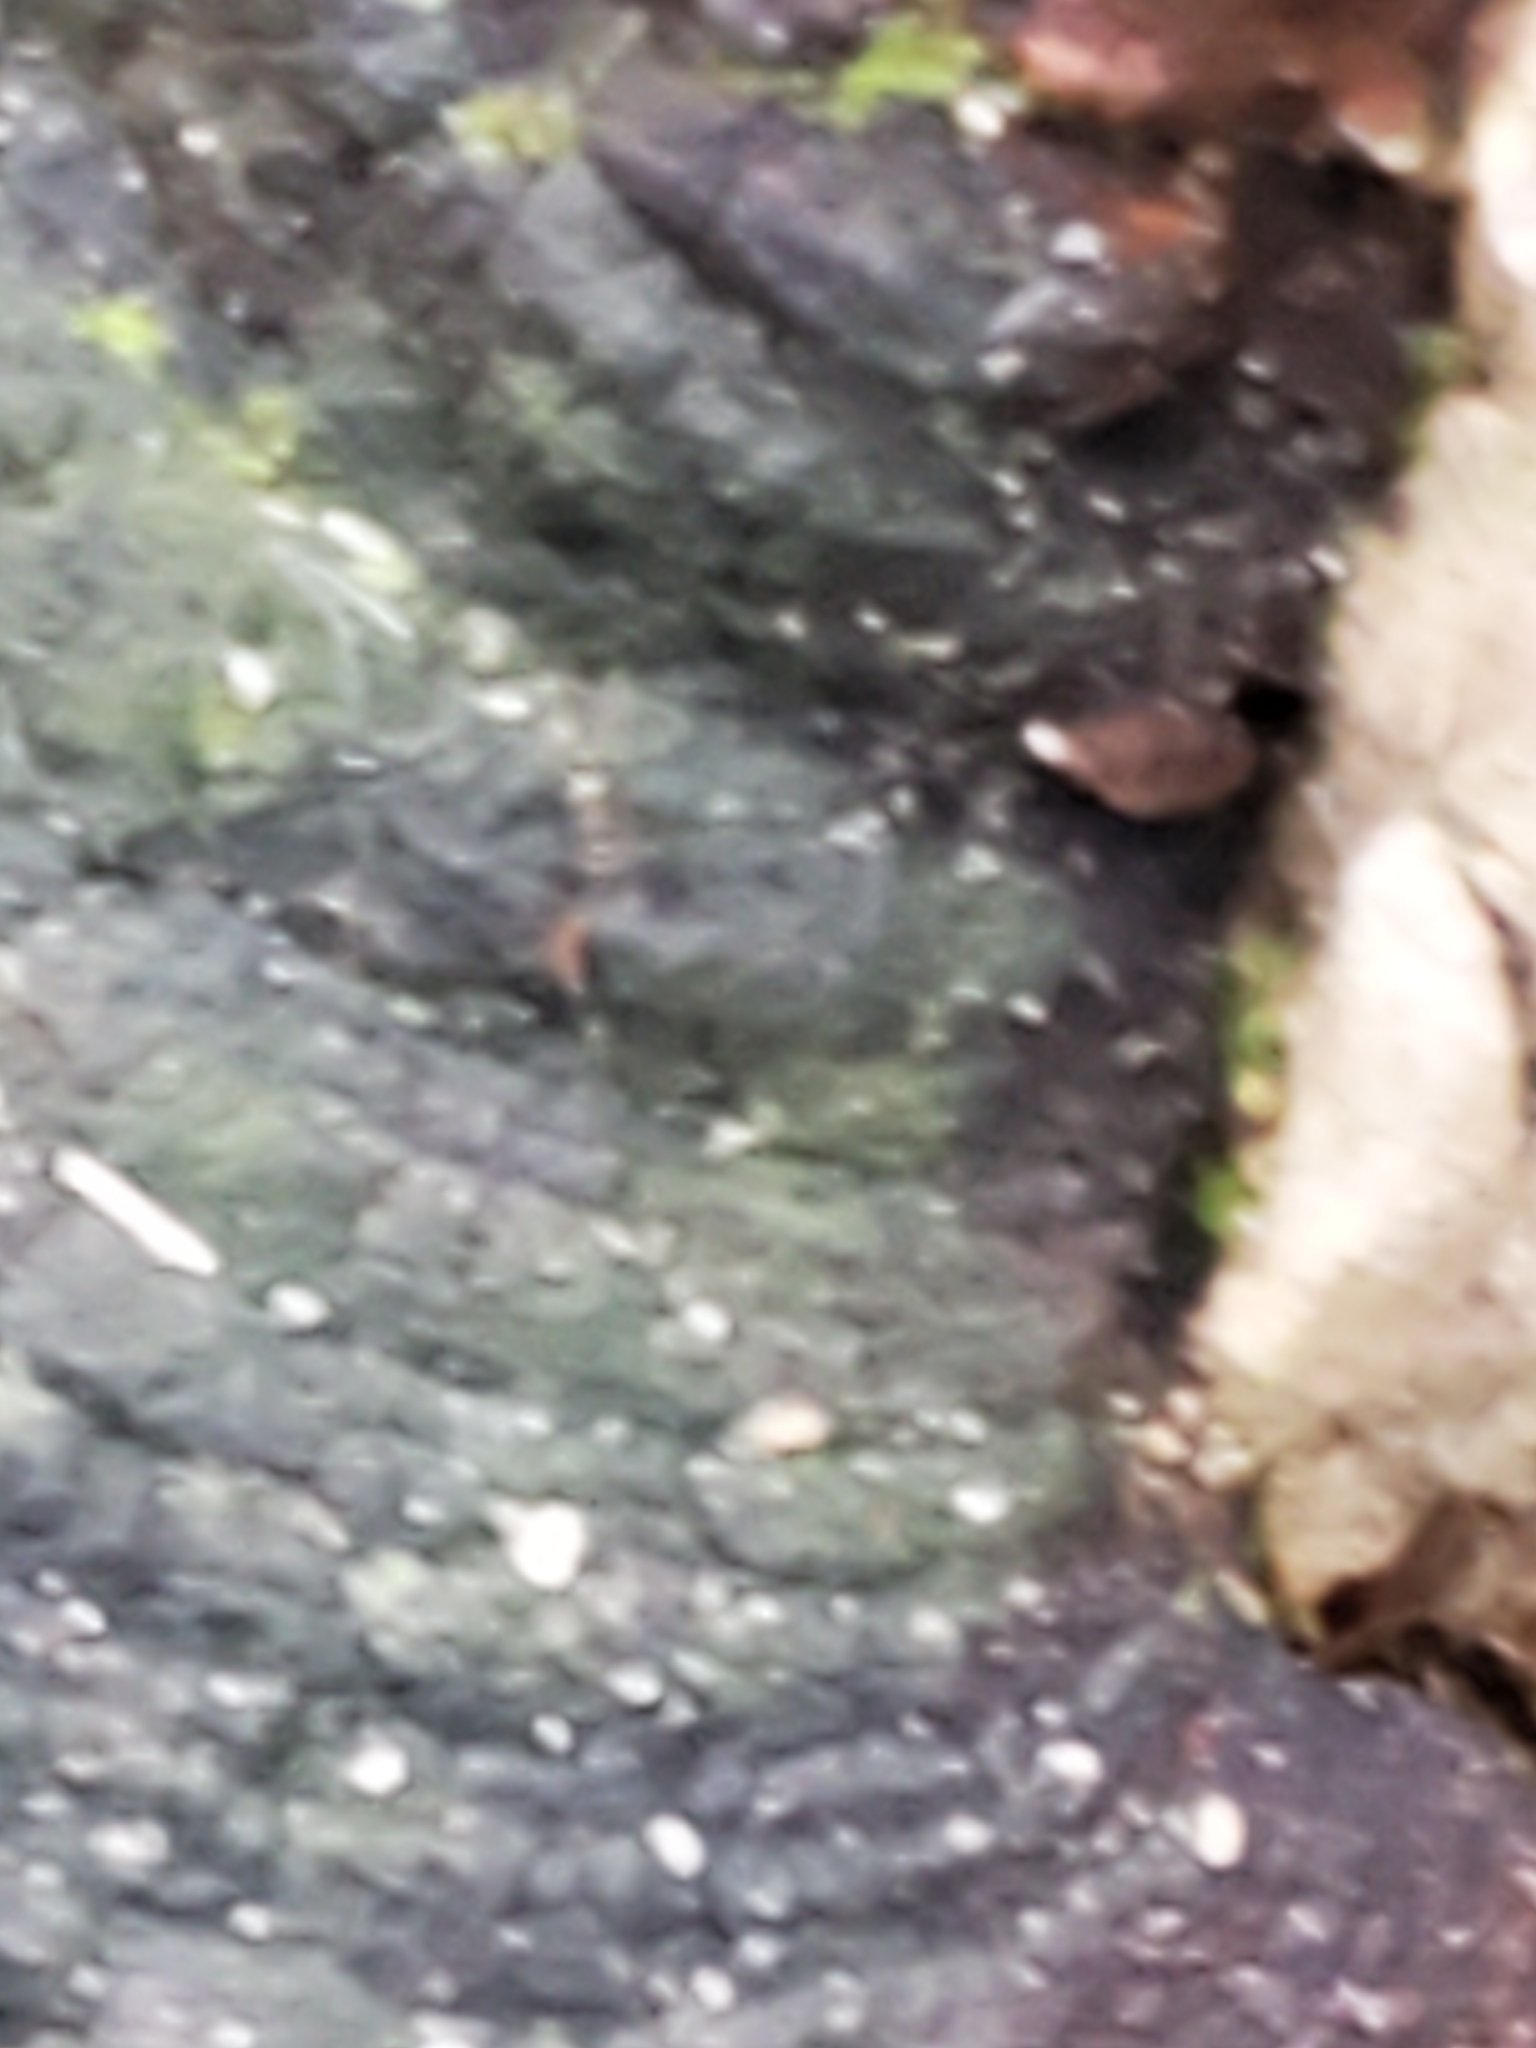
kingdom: Fungi
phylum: Basidiomycota
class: Agaricomycetes
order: Hymenochaetales
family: Hymenochaetaceae
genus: Phellinus
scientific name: Phellinus robiniae
